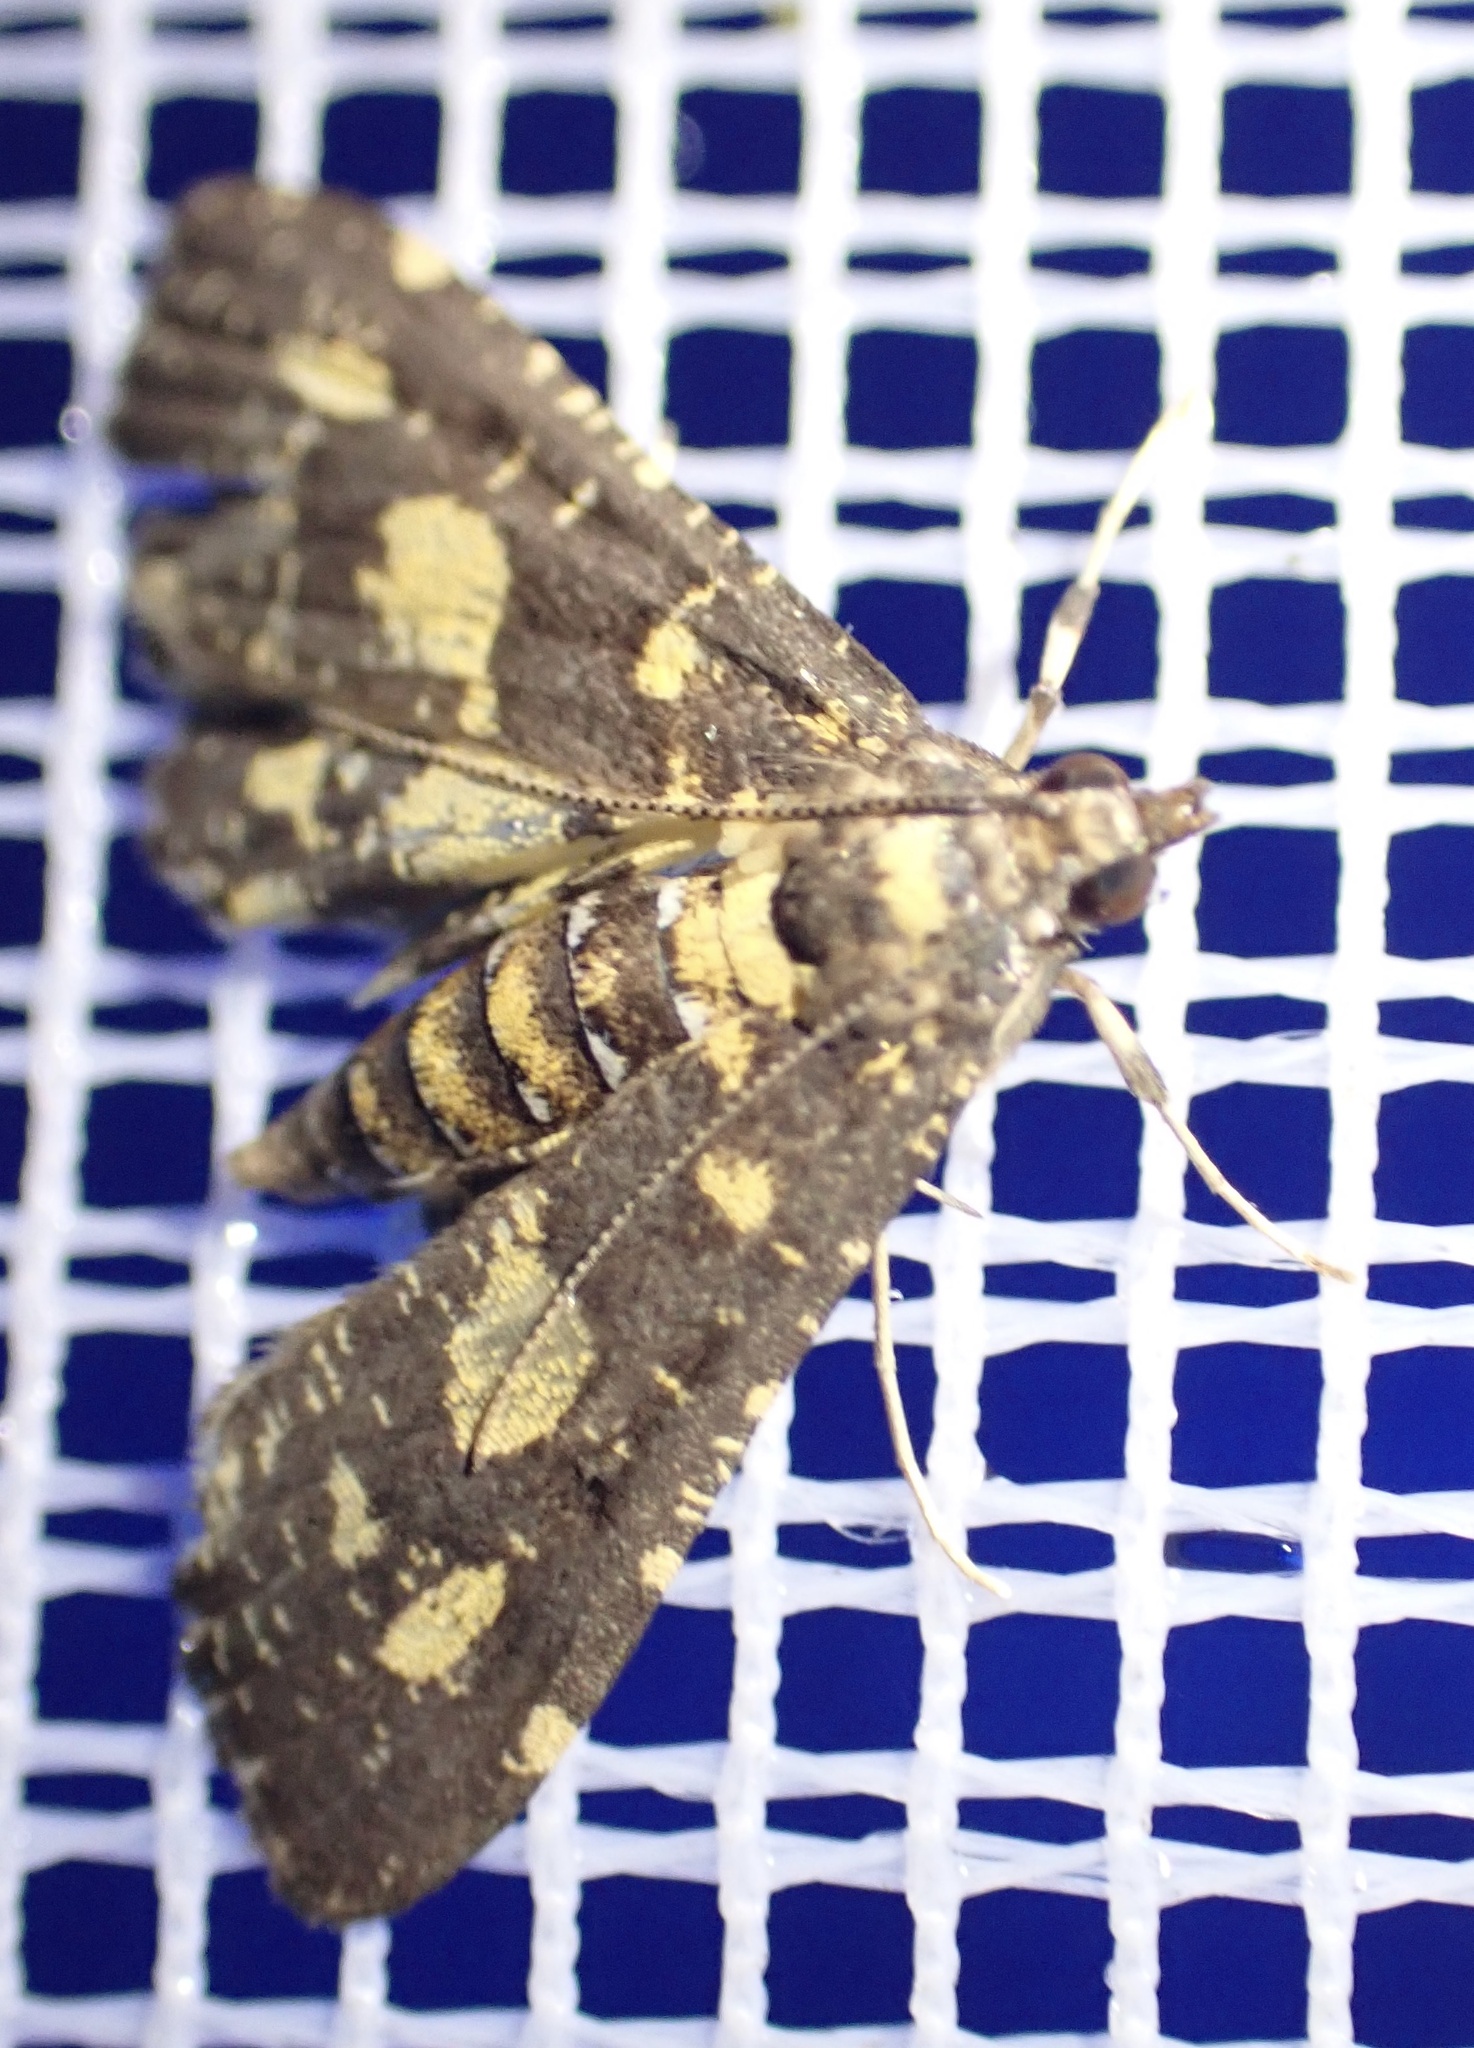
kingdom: Animalia
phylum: Arthropoda
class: Insecta
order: Lepidoptera
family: Crambidae
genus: Eurrhyparodes
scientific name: Eurrhyparodes bracteolalis
